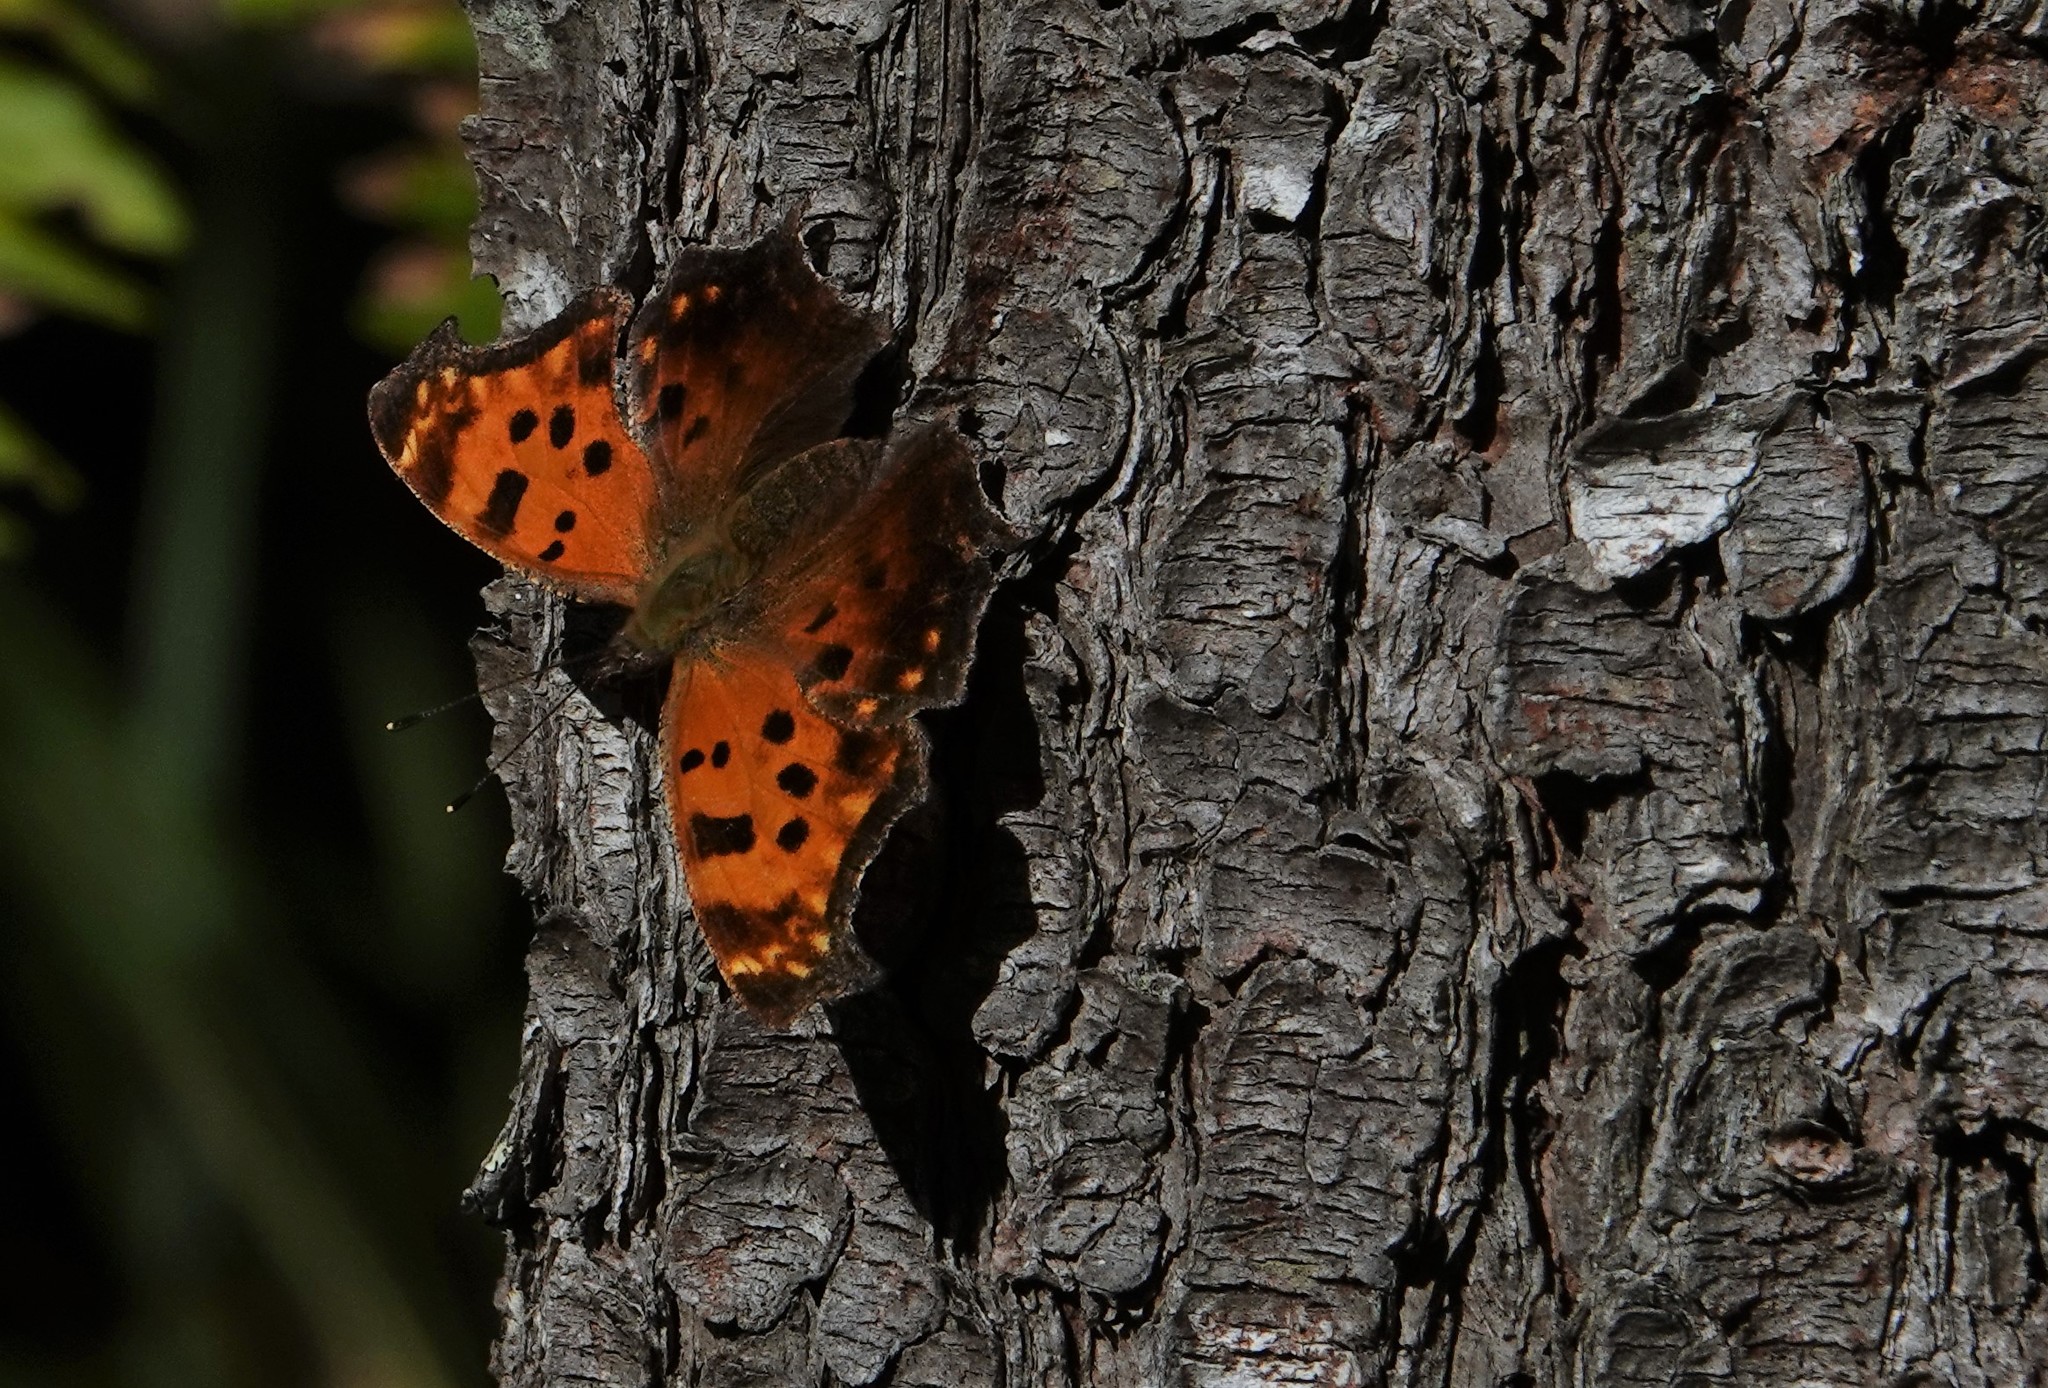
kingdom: Animalia
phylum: Arthropoda
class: Insecta
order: Lepidoptera
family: Nymphalidae
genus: Polygonia
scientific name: Polygonia comma
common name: Eastern comma
